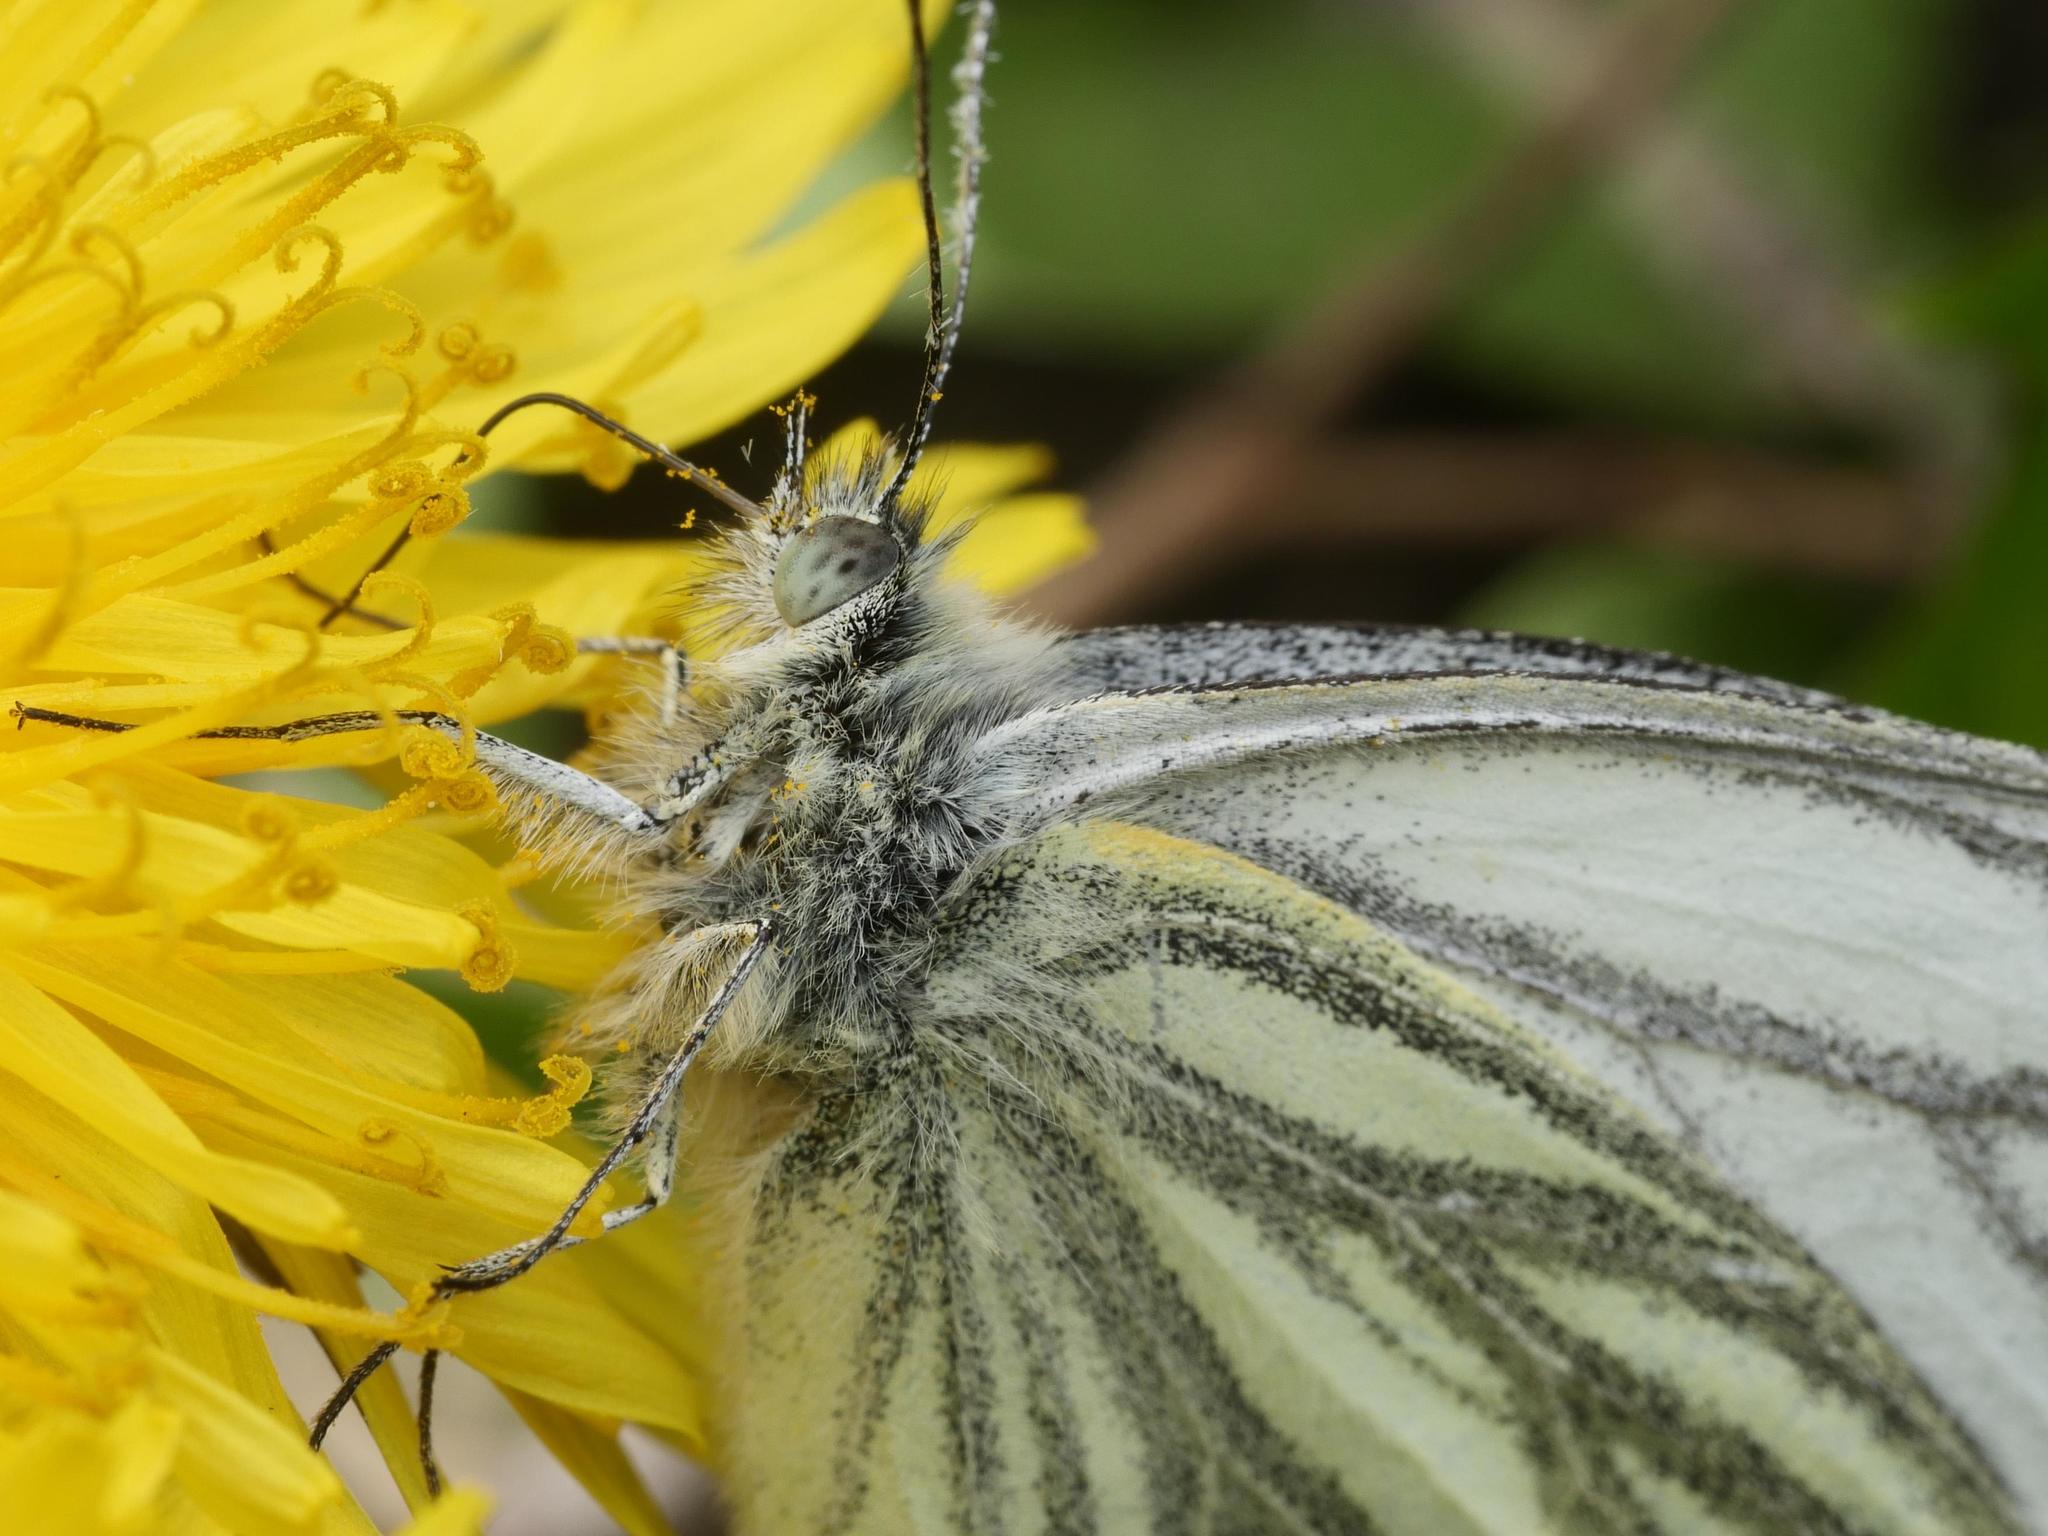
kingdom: Animalia
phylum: Arthropoda
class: Insecta
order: Lepidoptera
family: Pieridae
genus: Pieris
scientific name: Pieris napi
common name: Green-veined white
